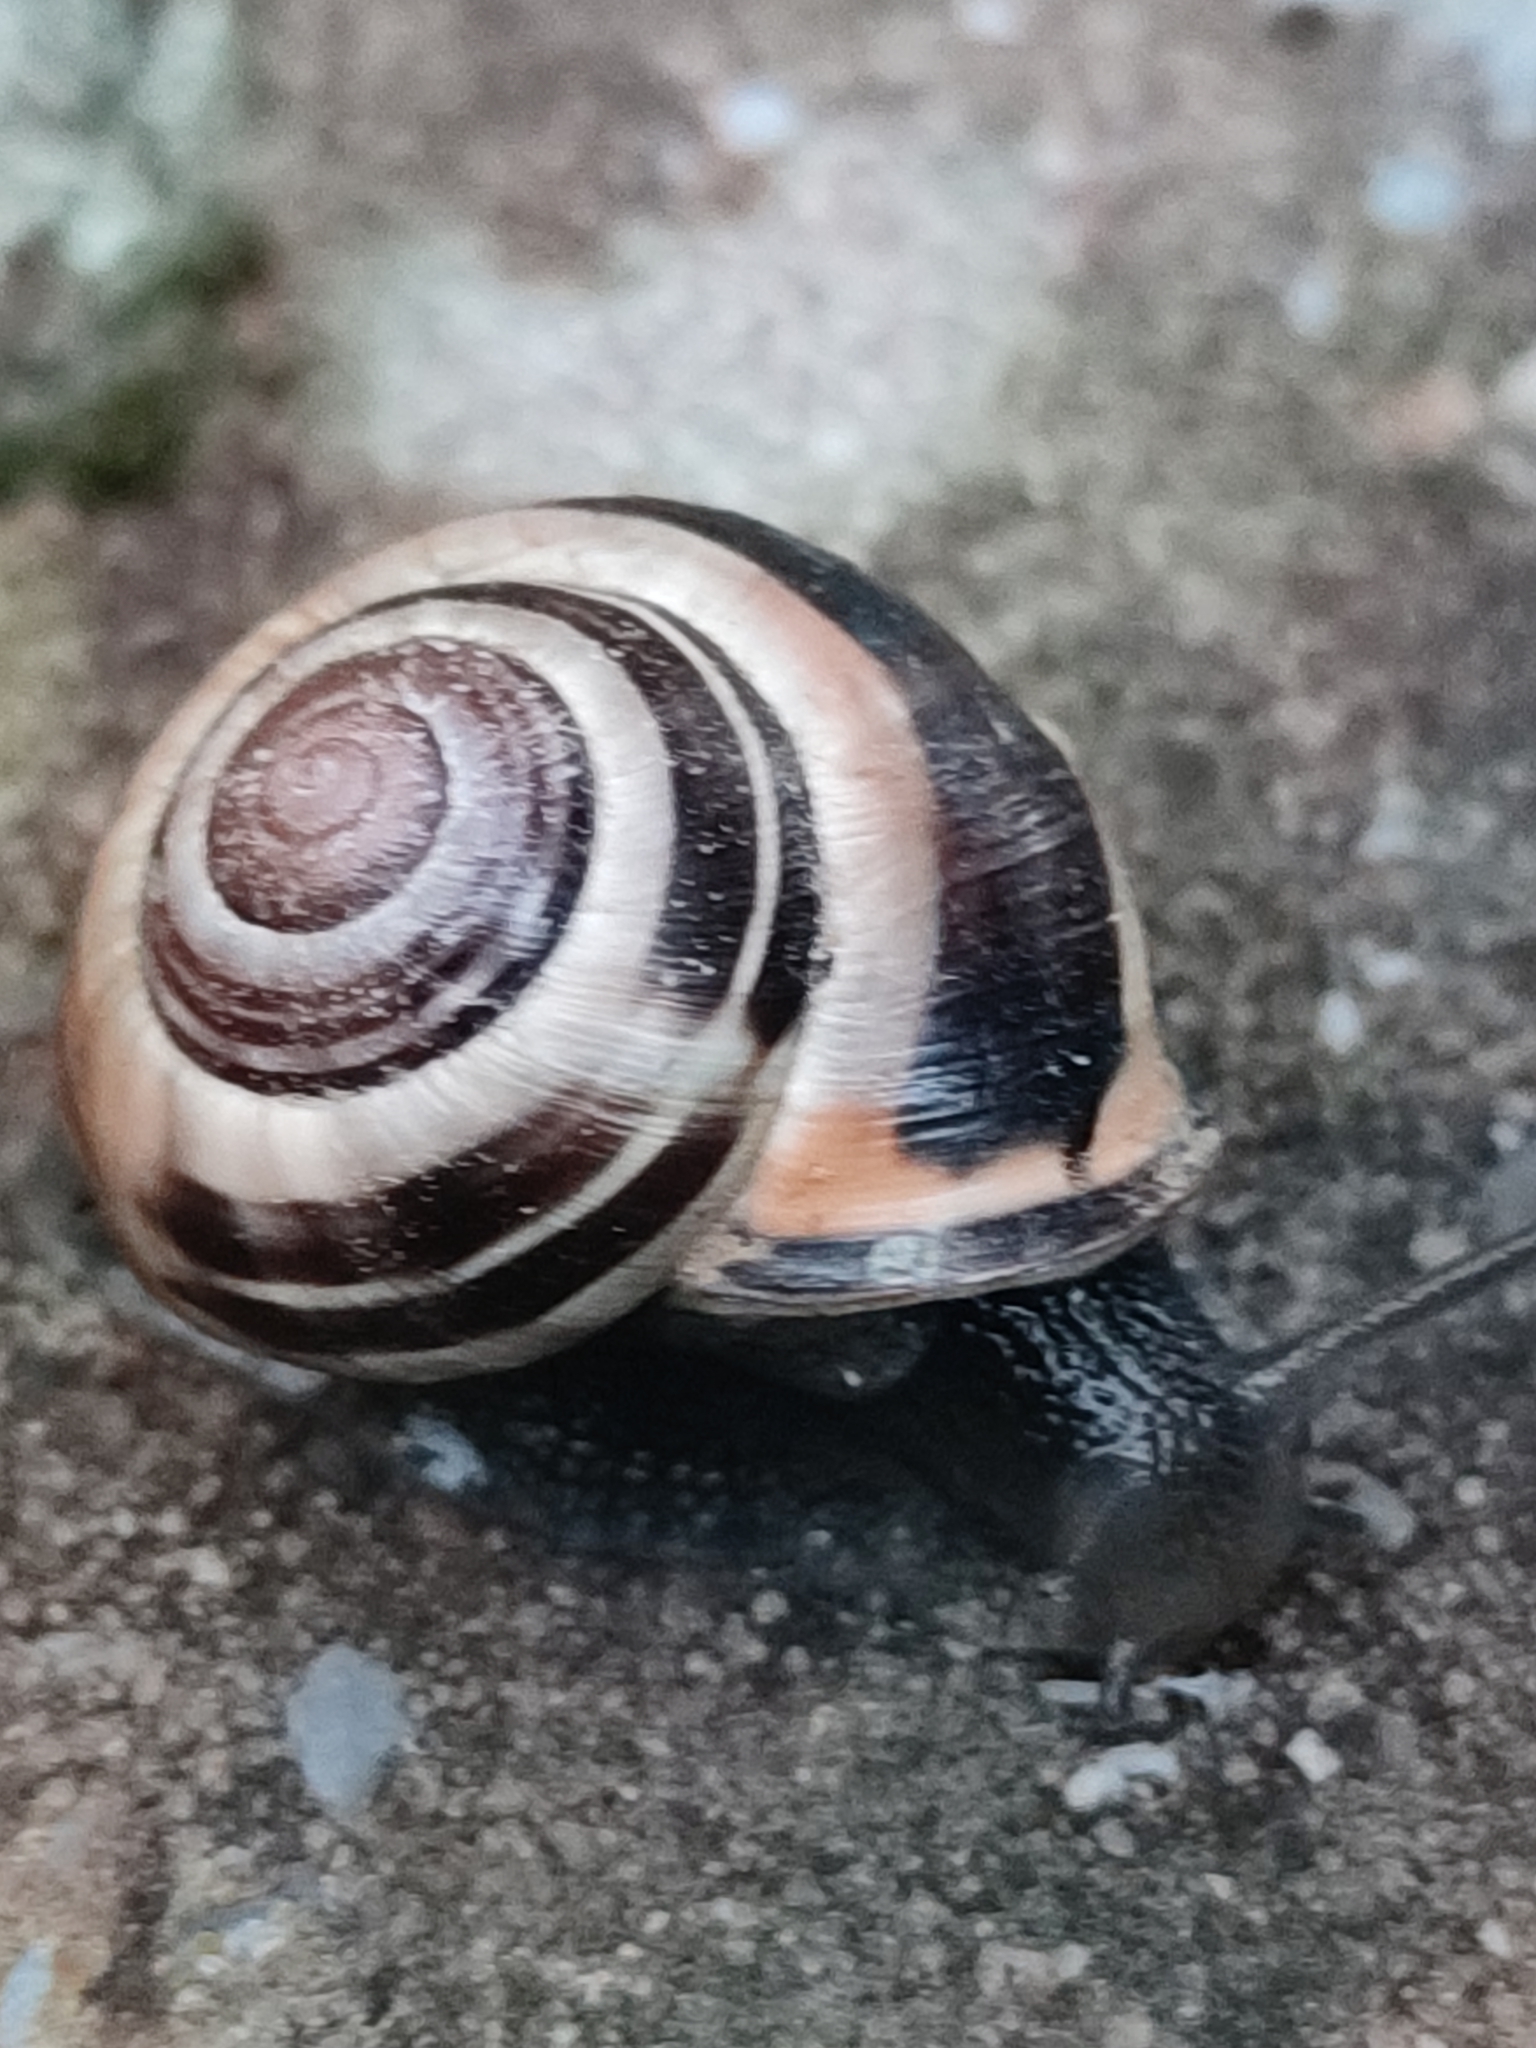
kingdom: Animalia
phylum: Mollusca
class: Gastropoda
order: Stylommatophora
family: Helicidae
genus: Cepaea
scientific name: Cepaea nemoralis
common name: Grovesnail
